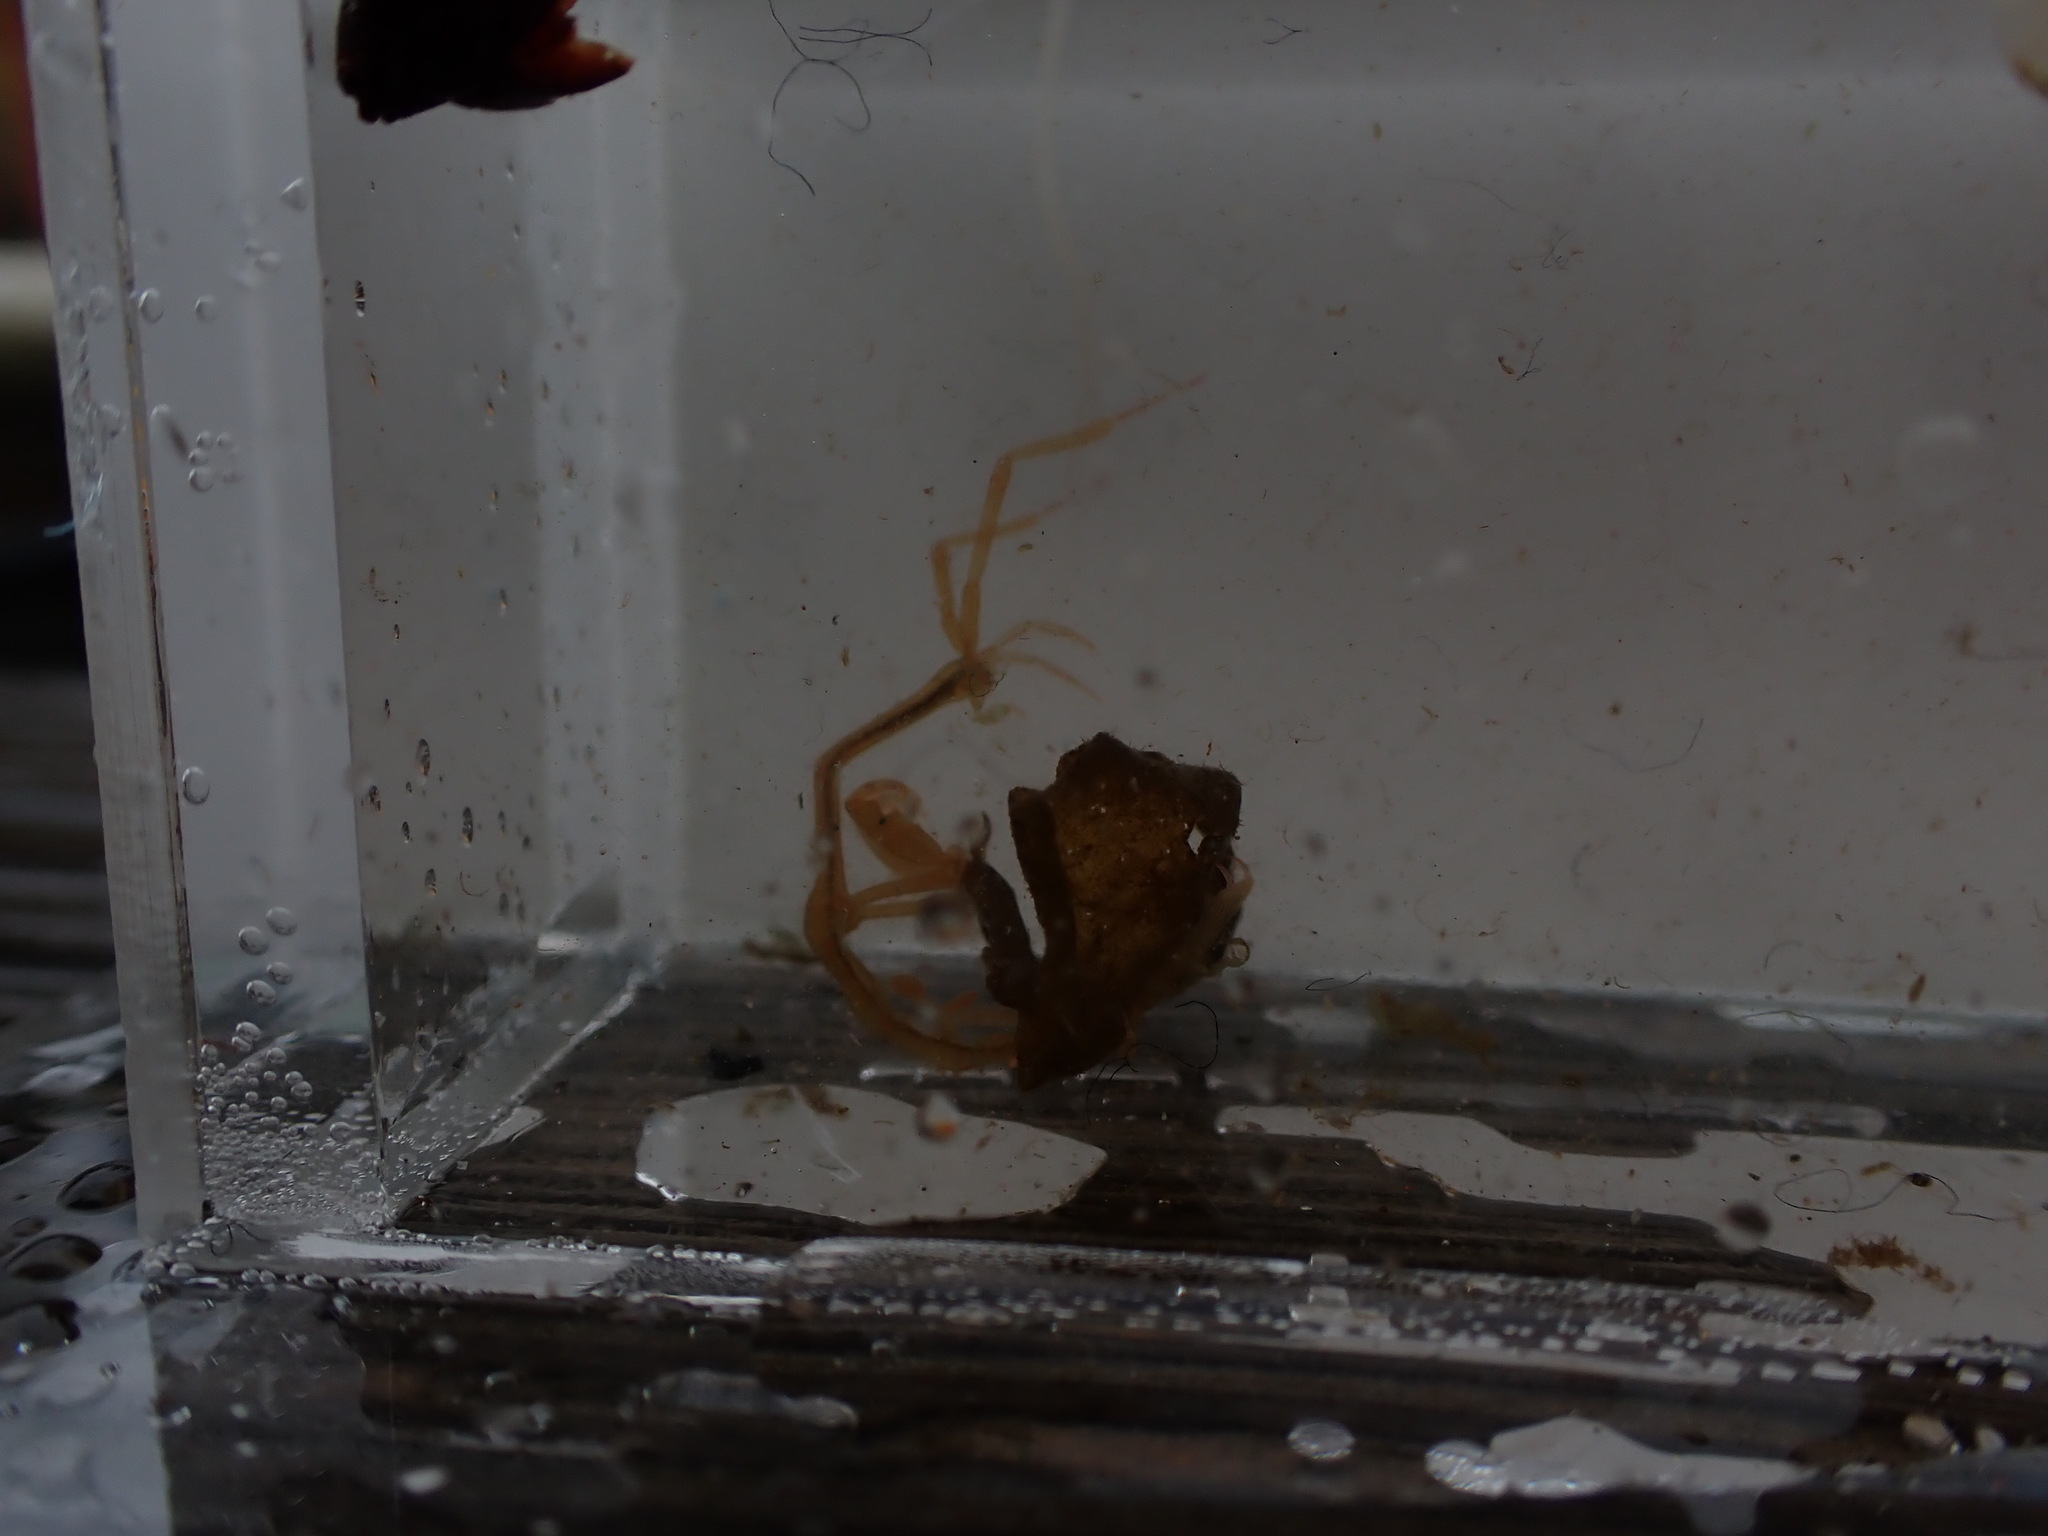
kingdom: Animalia
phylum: Arthropoda
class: Malacostraca
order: Amphipoda
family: Caprellidae
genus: Caprella
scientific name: Caprella mutica
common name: Japanese skeleton shrimp
